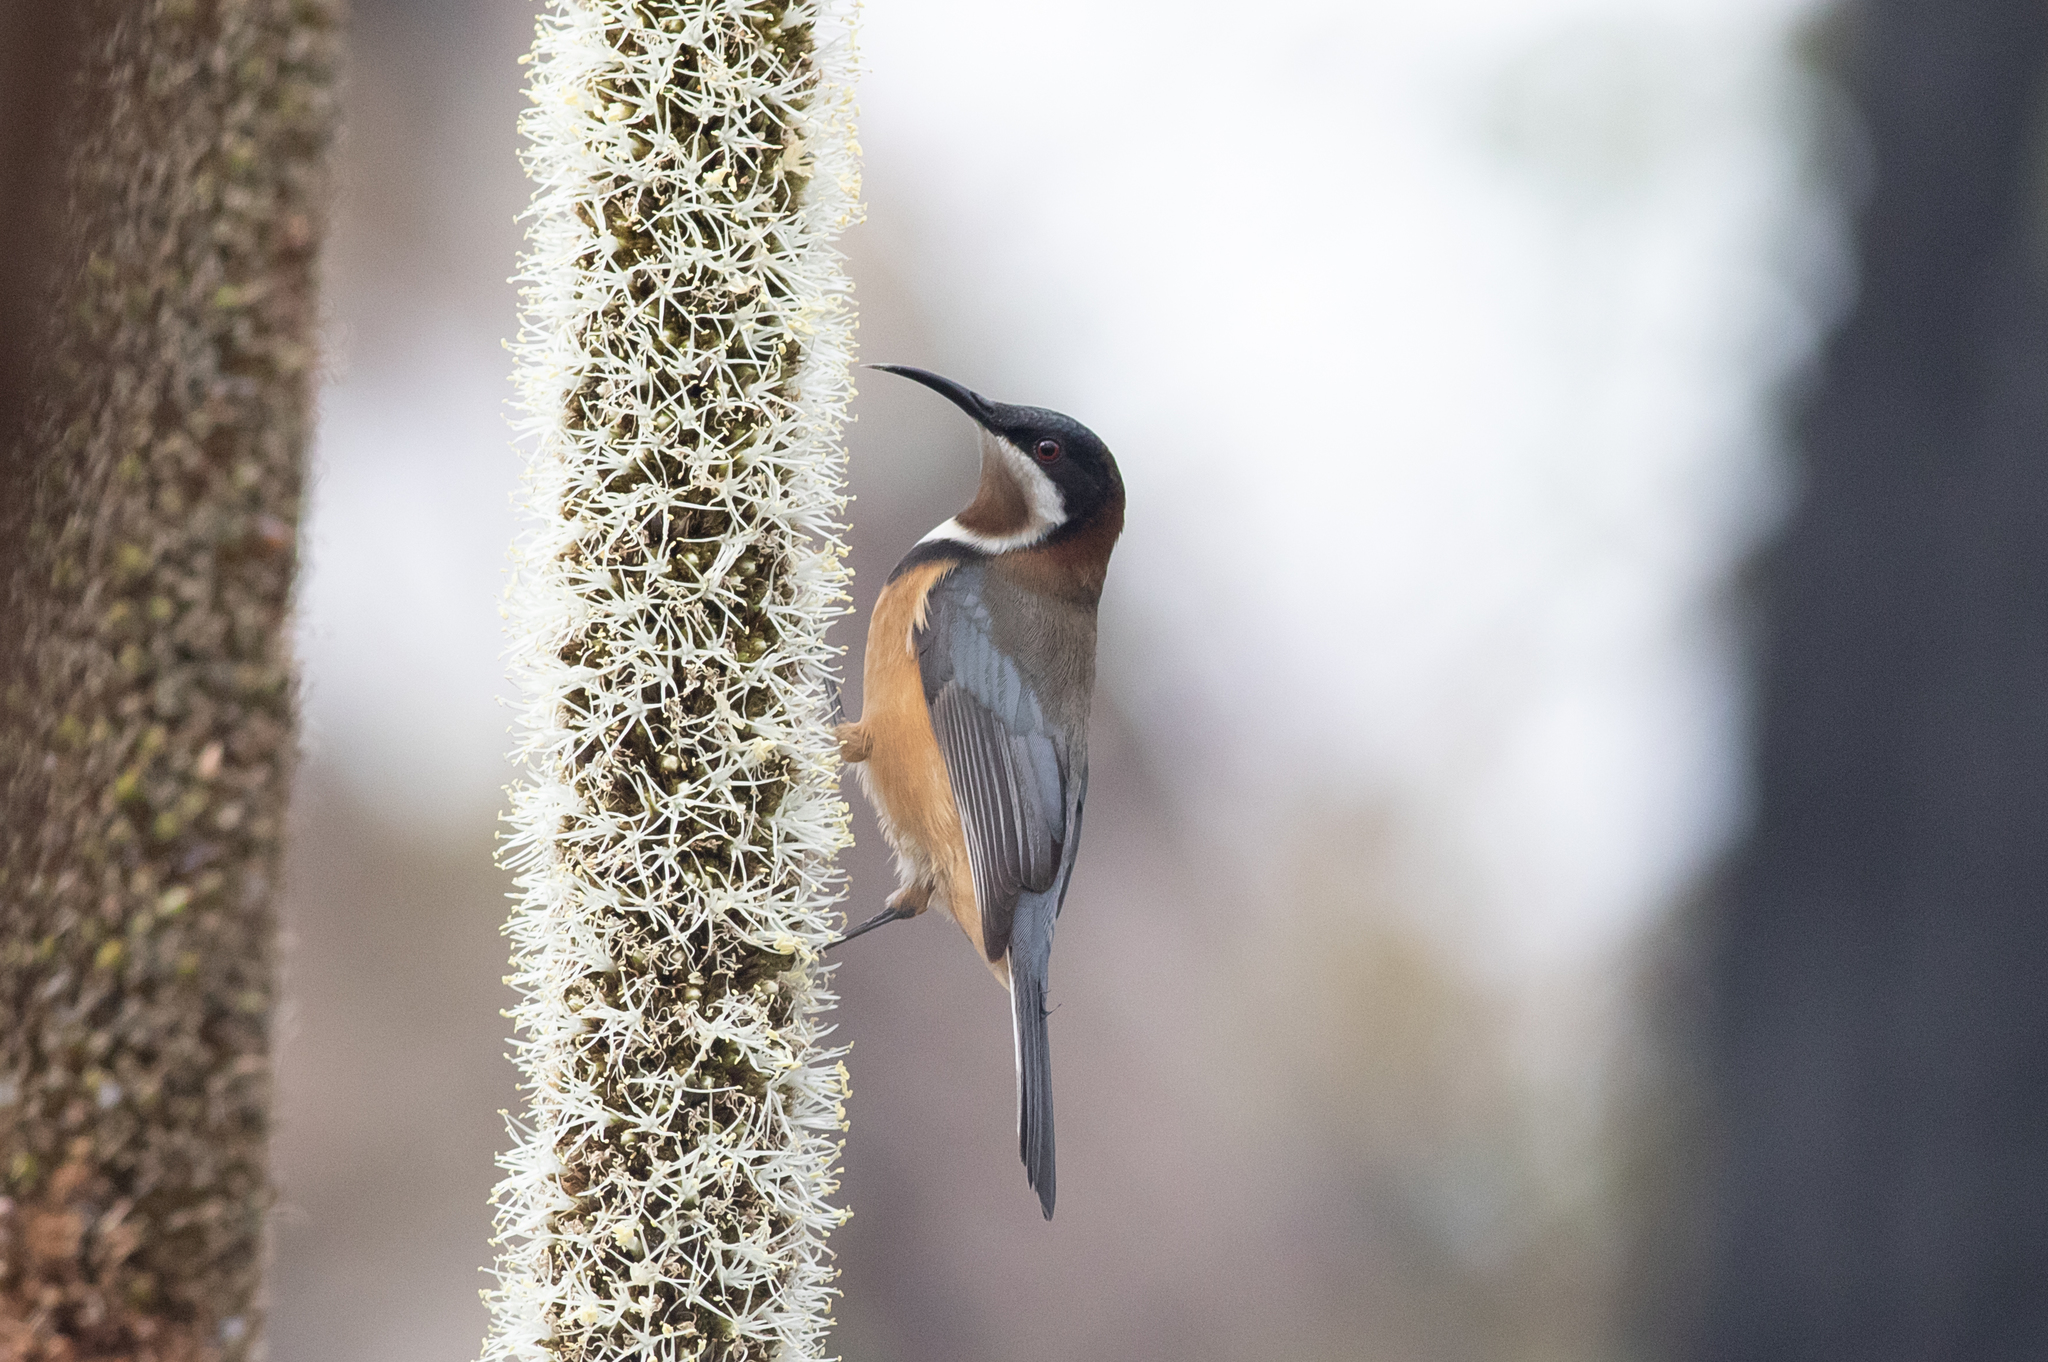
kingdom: Animalia
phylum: Chordata
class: Aves
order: Passeriformes
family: Meliphagidae
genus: Acanthorhynchus
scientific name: Acanthorhynchus tenuirostris
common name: Eastern spinebill
